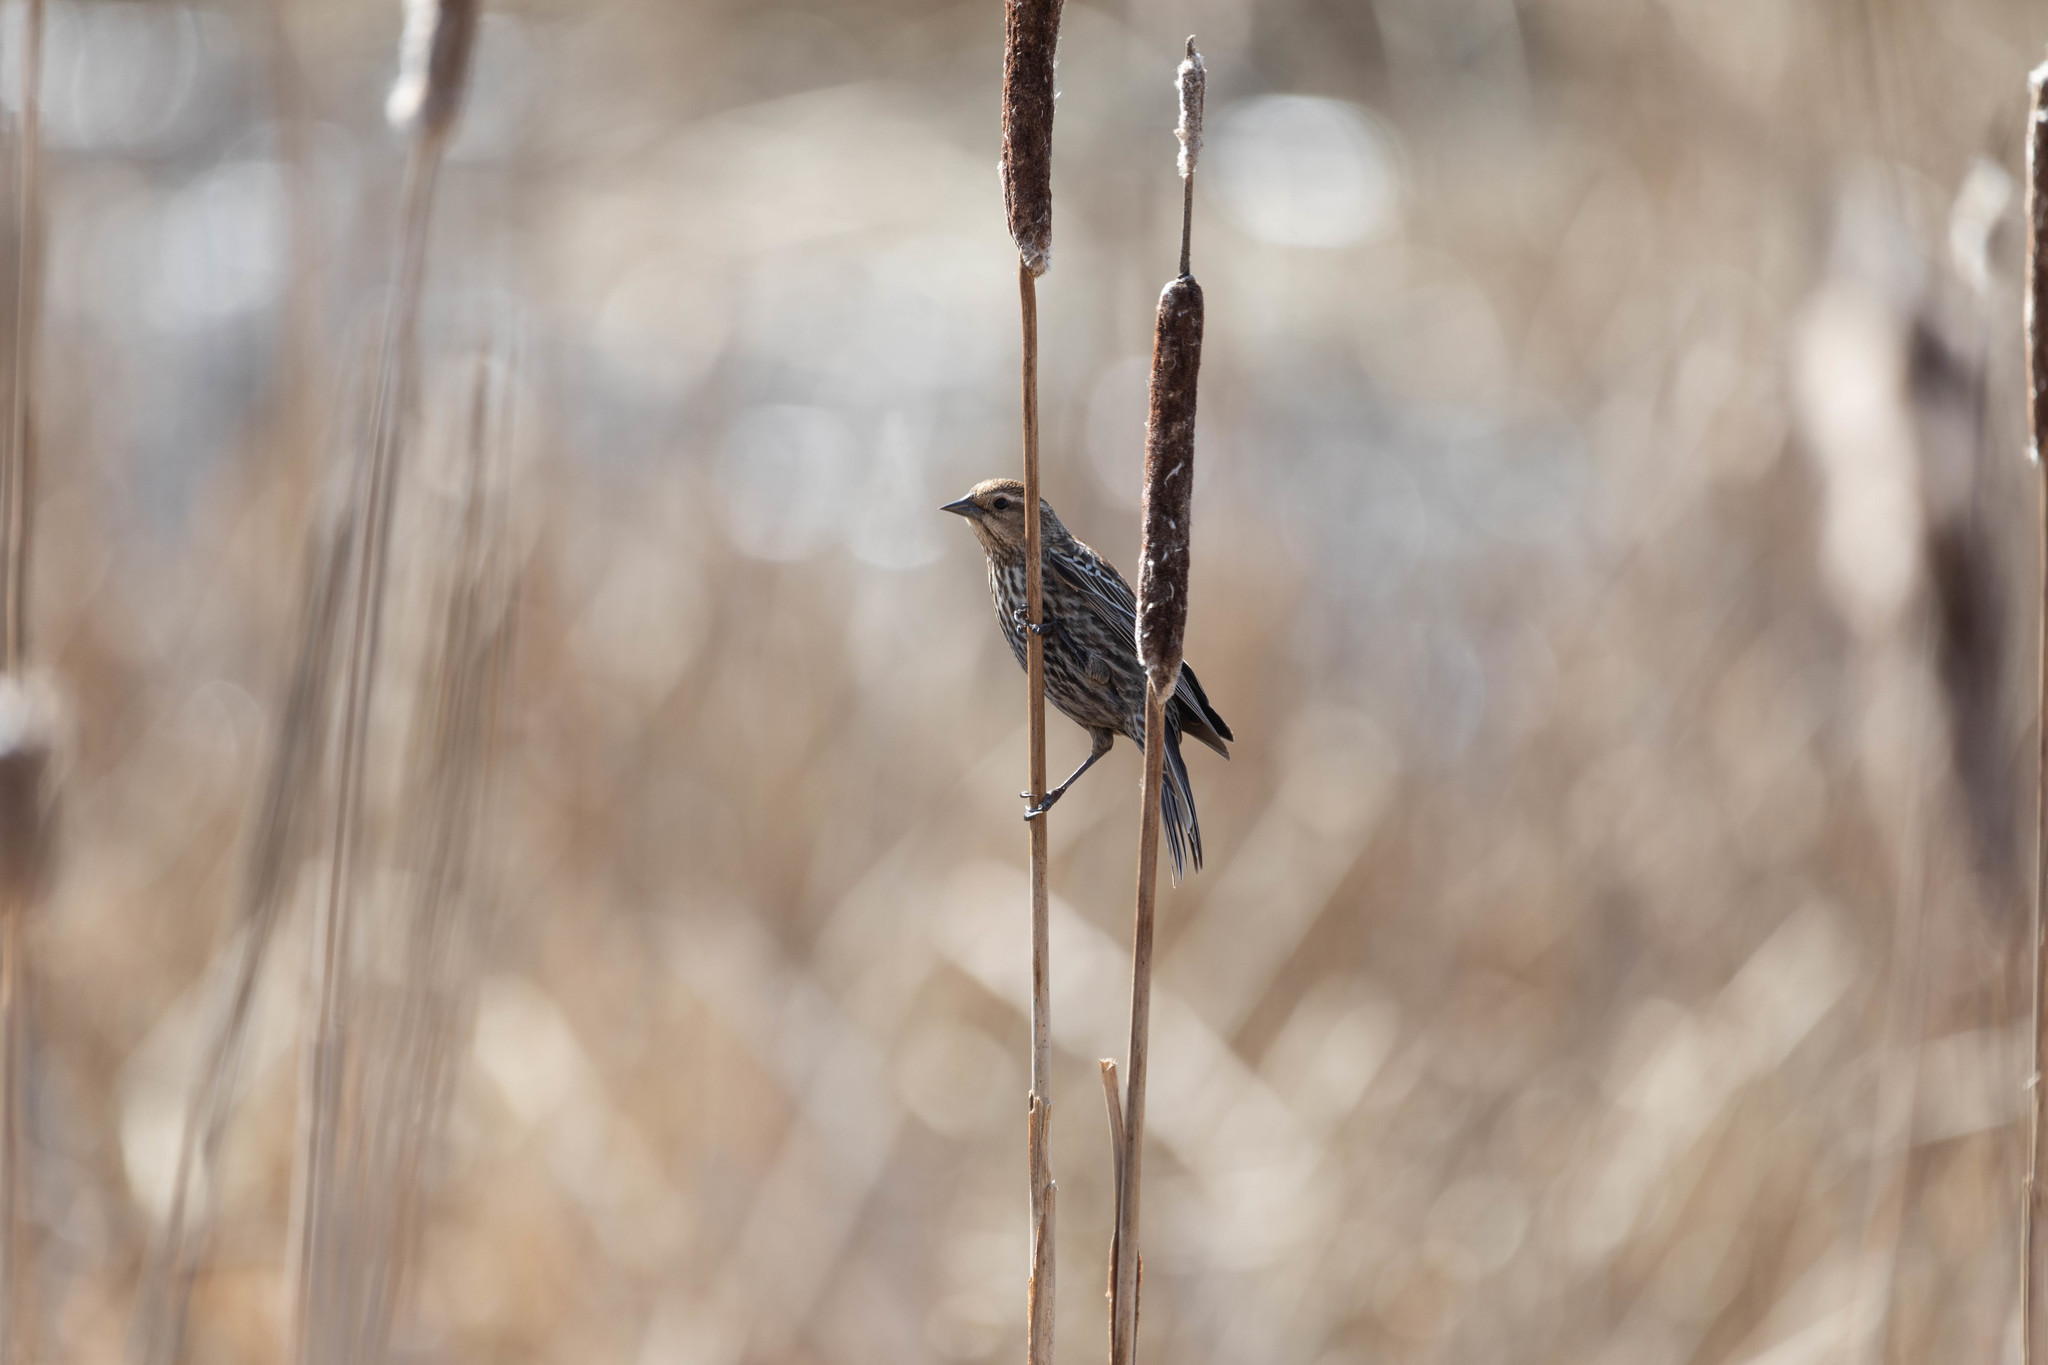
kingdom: Animalia
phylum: Chordata
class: Aves
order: Passeriformes
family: Icteridae
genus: Agelaius
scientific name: Agelaius phoeniceus
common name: Red-winged blackbird
